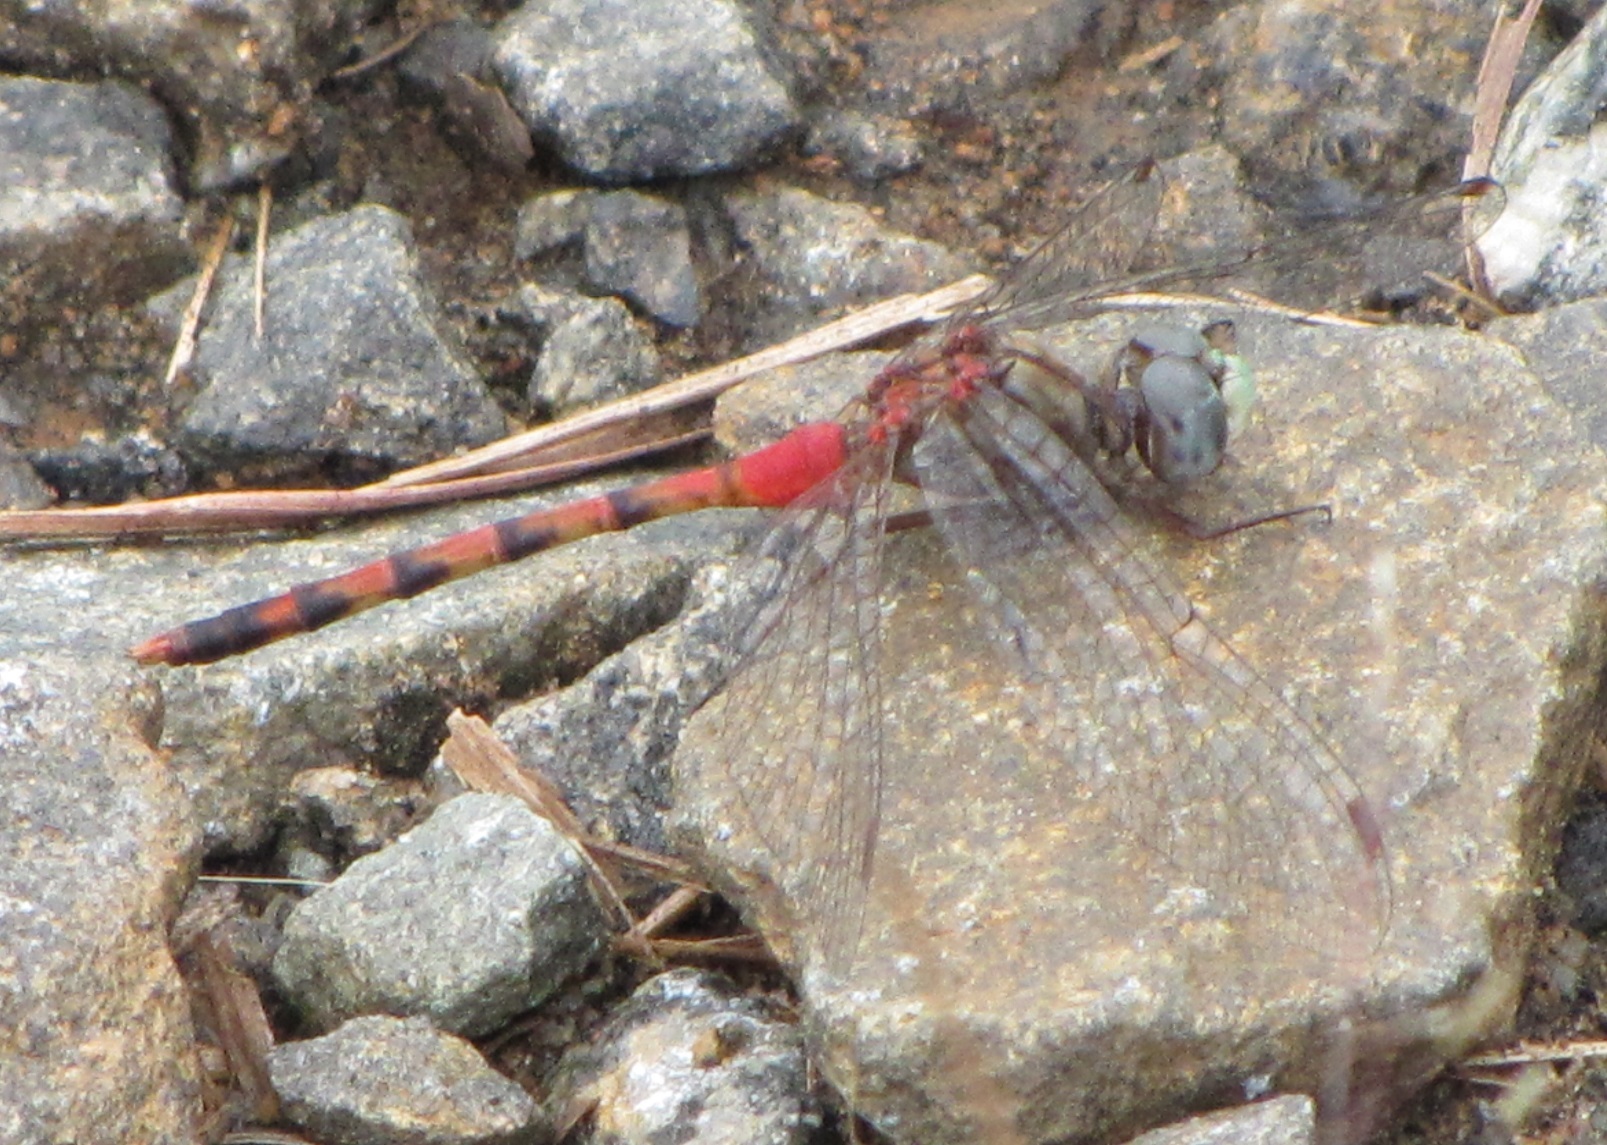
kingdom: Animalia
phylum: Arthropoda
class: Insecta
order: Odonata
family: Libellulidae
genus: Sympetrum
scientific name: Sympetrum ambiguum
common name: Blue-faced meadowhawk
